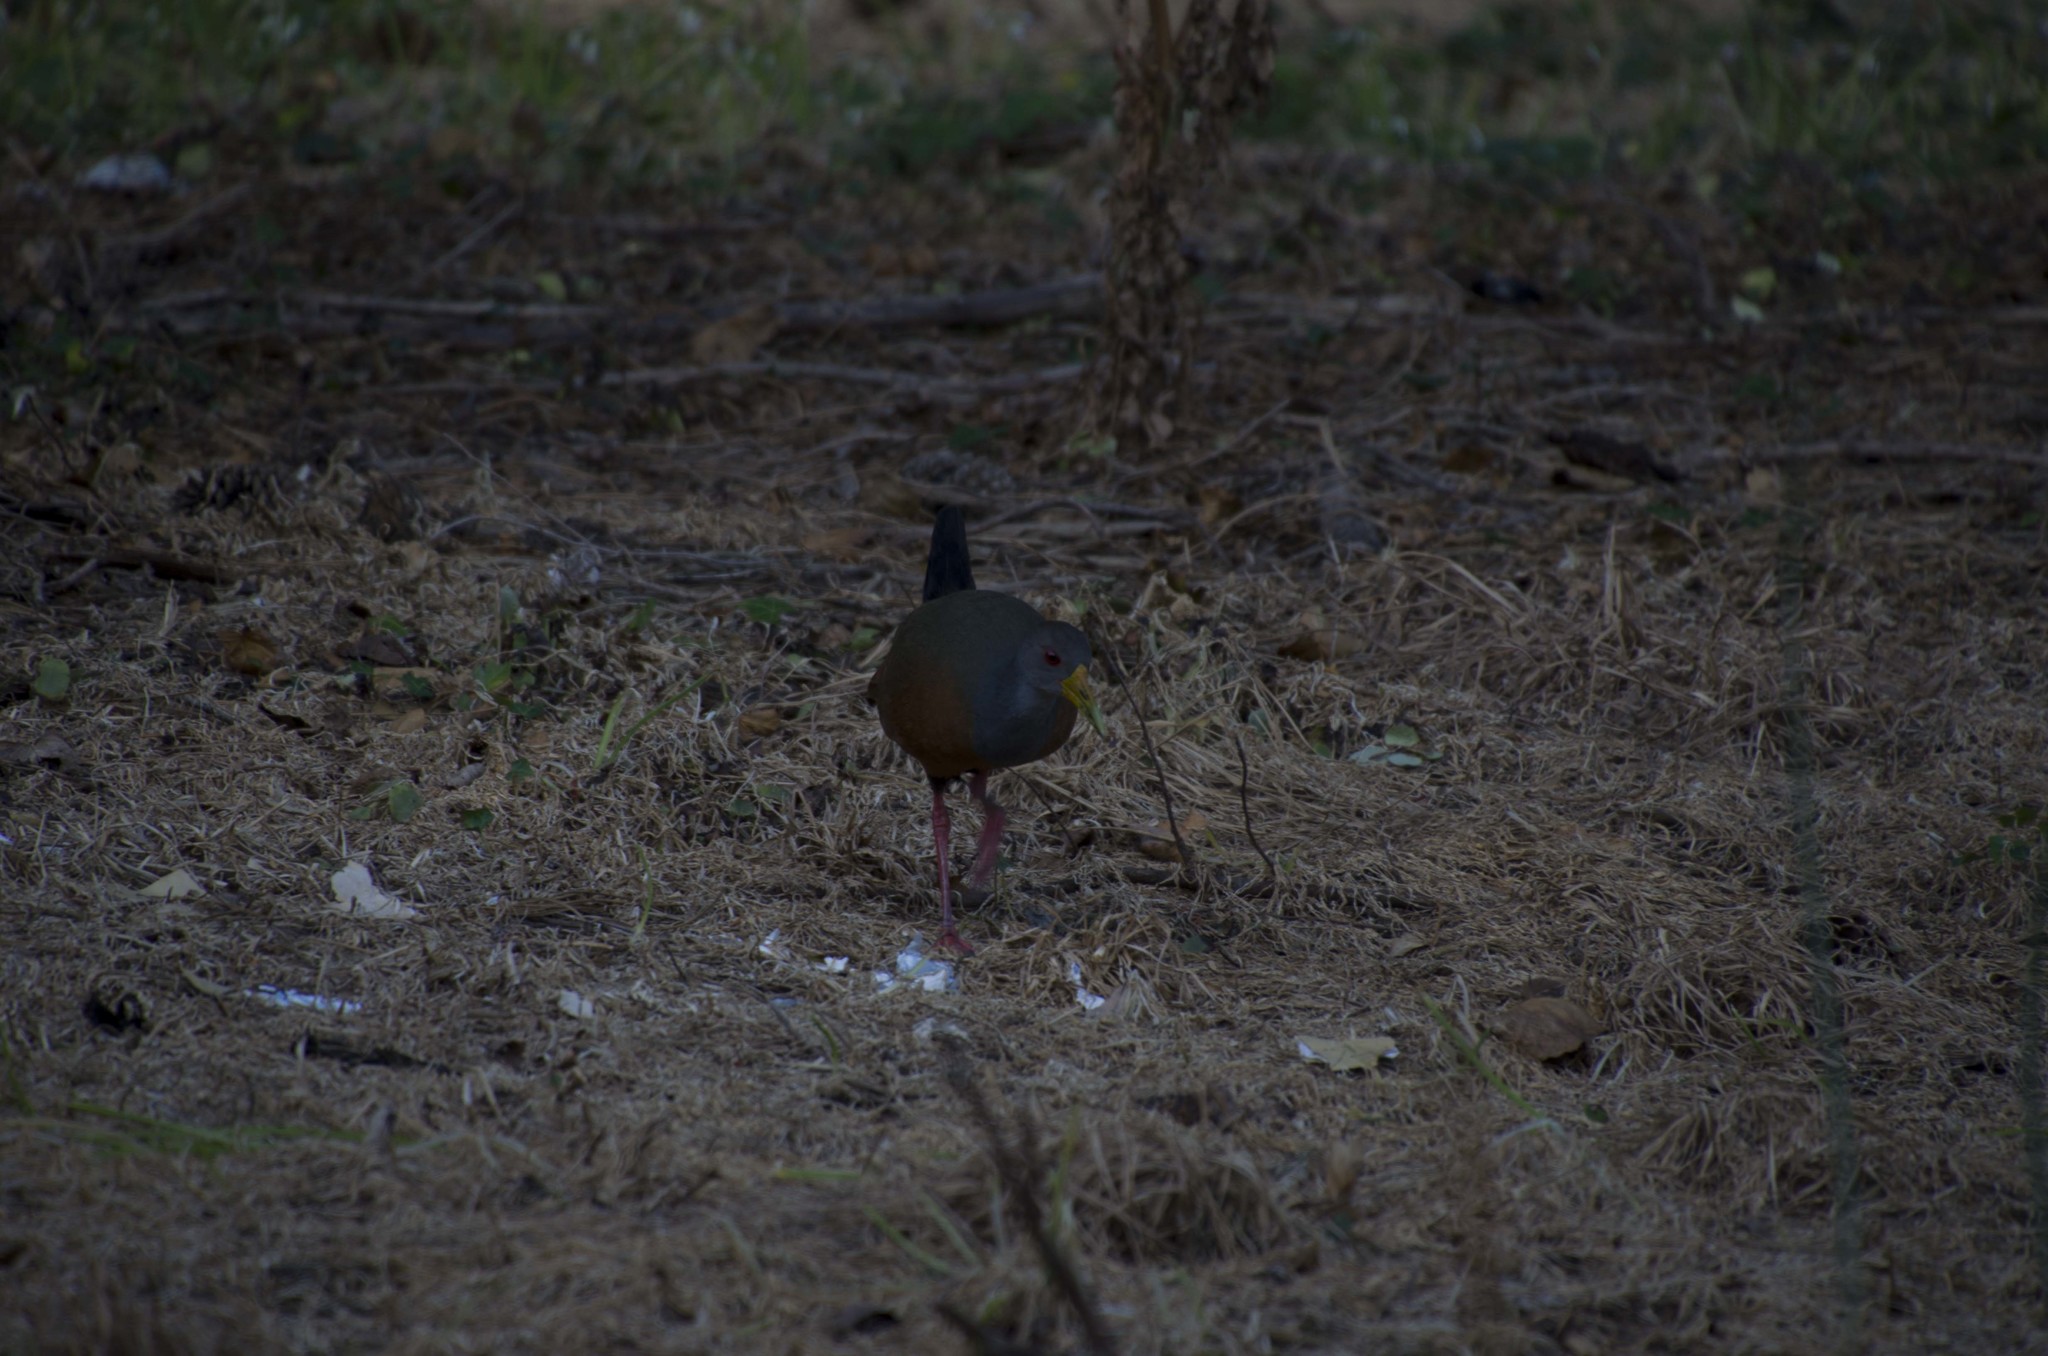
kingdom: Animalia
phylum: Chordata
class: Aves
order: Gruiformes
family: Rallidae
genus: Aramides
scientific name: Aramides cajanea
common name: Gray-necked wood-rail
